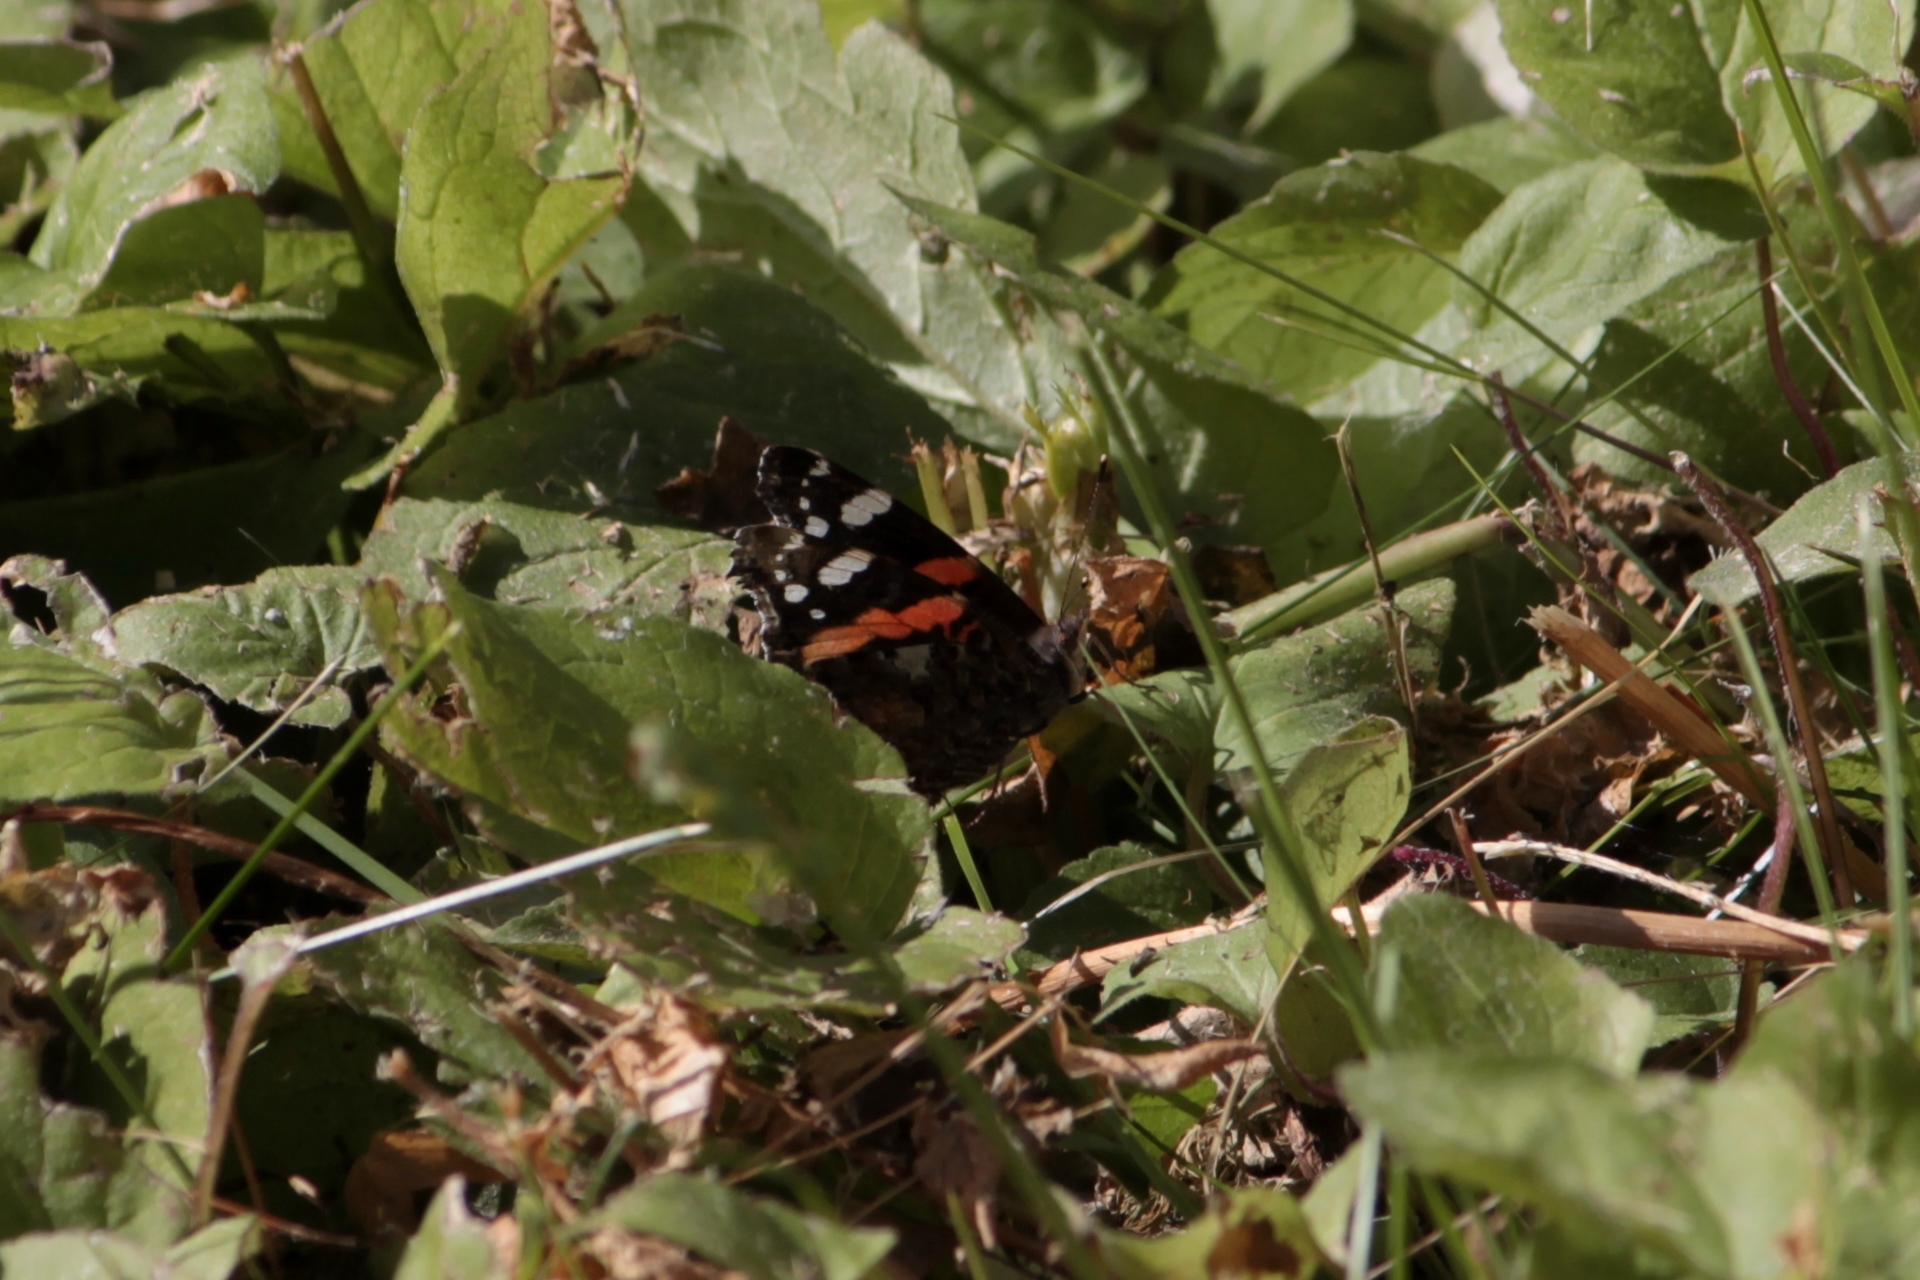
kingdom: Animalia
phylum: Arthropoda
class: Insecta
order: Lepidoptera
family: Nymphalidae
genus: Vanessa
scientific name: Vanessa atalanta
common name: Red admiral
